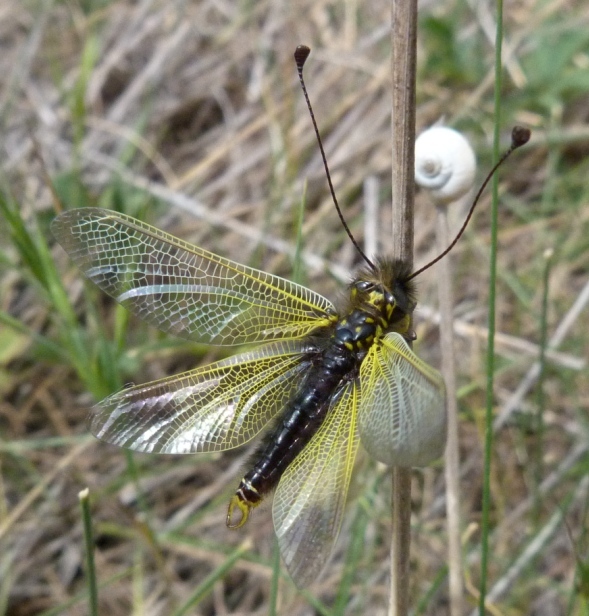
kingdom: Animalia
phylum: Arthropoda
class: Insecta
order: Neuroptera
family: Ascalaphidae
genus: Libelloides
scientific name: Libelloides ictericus
